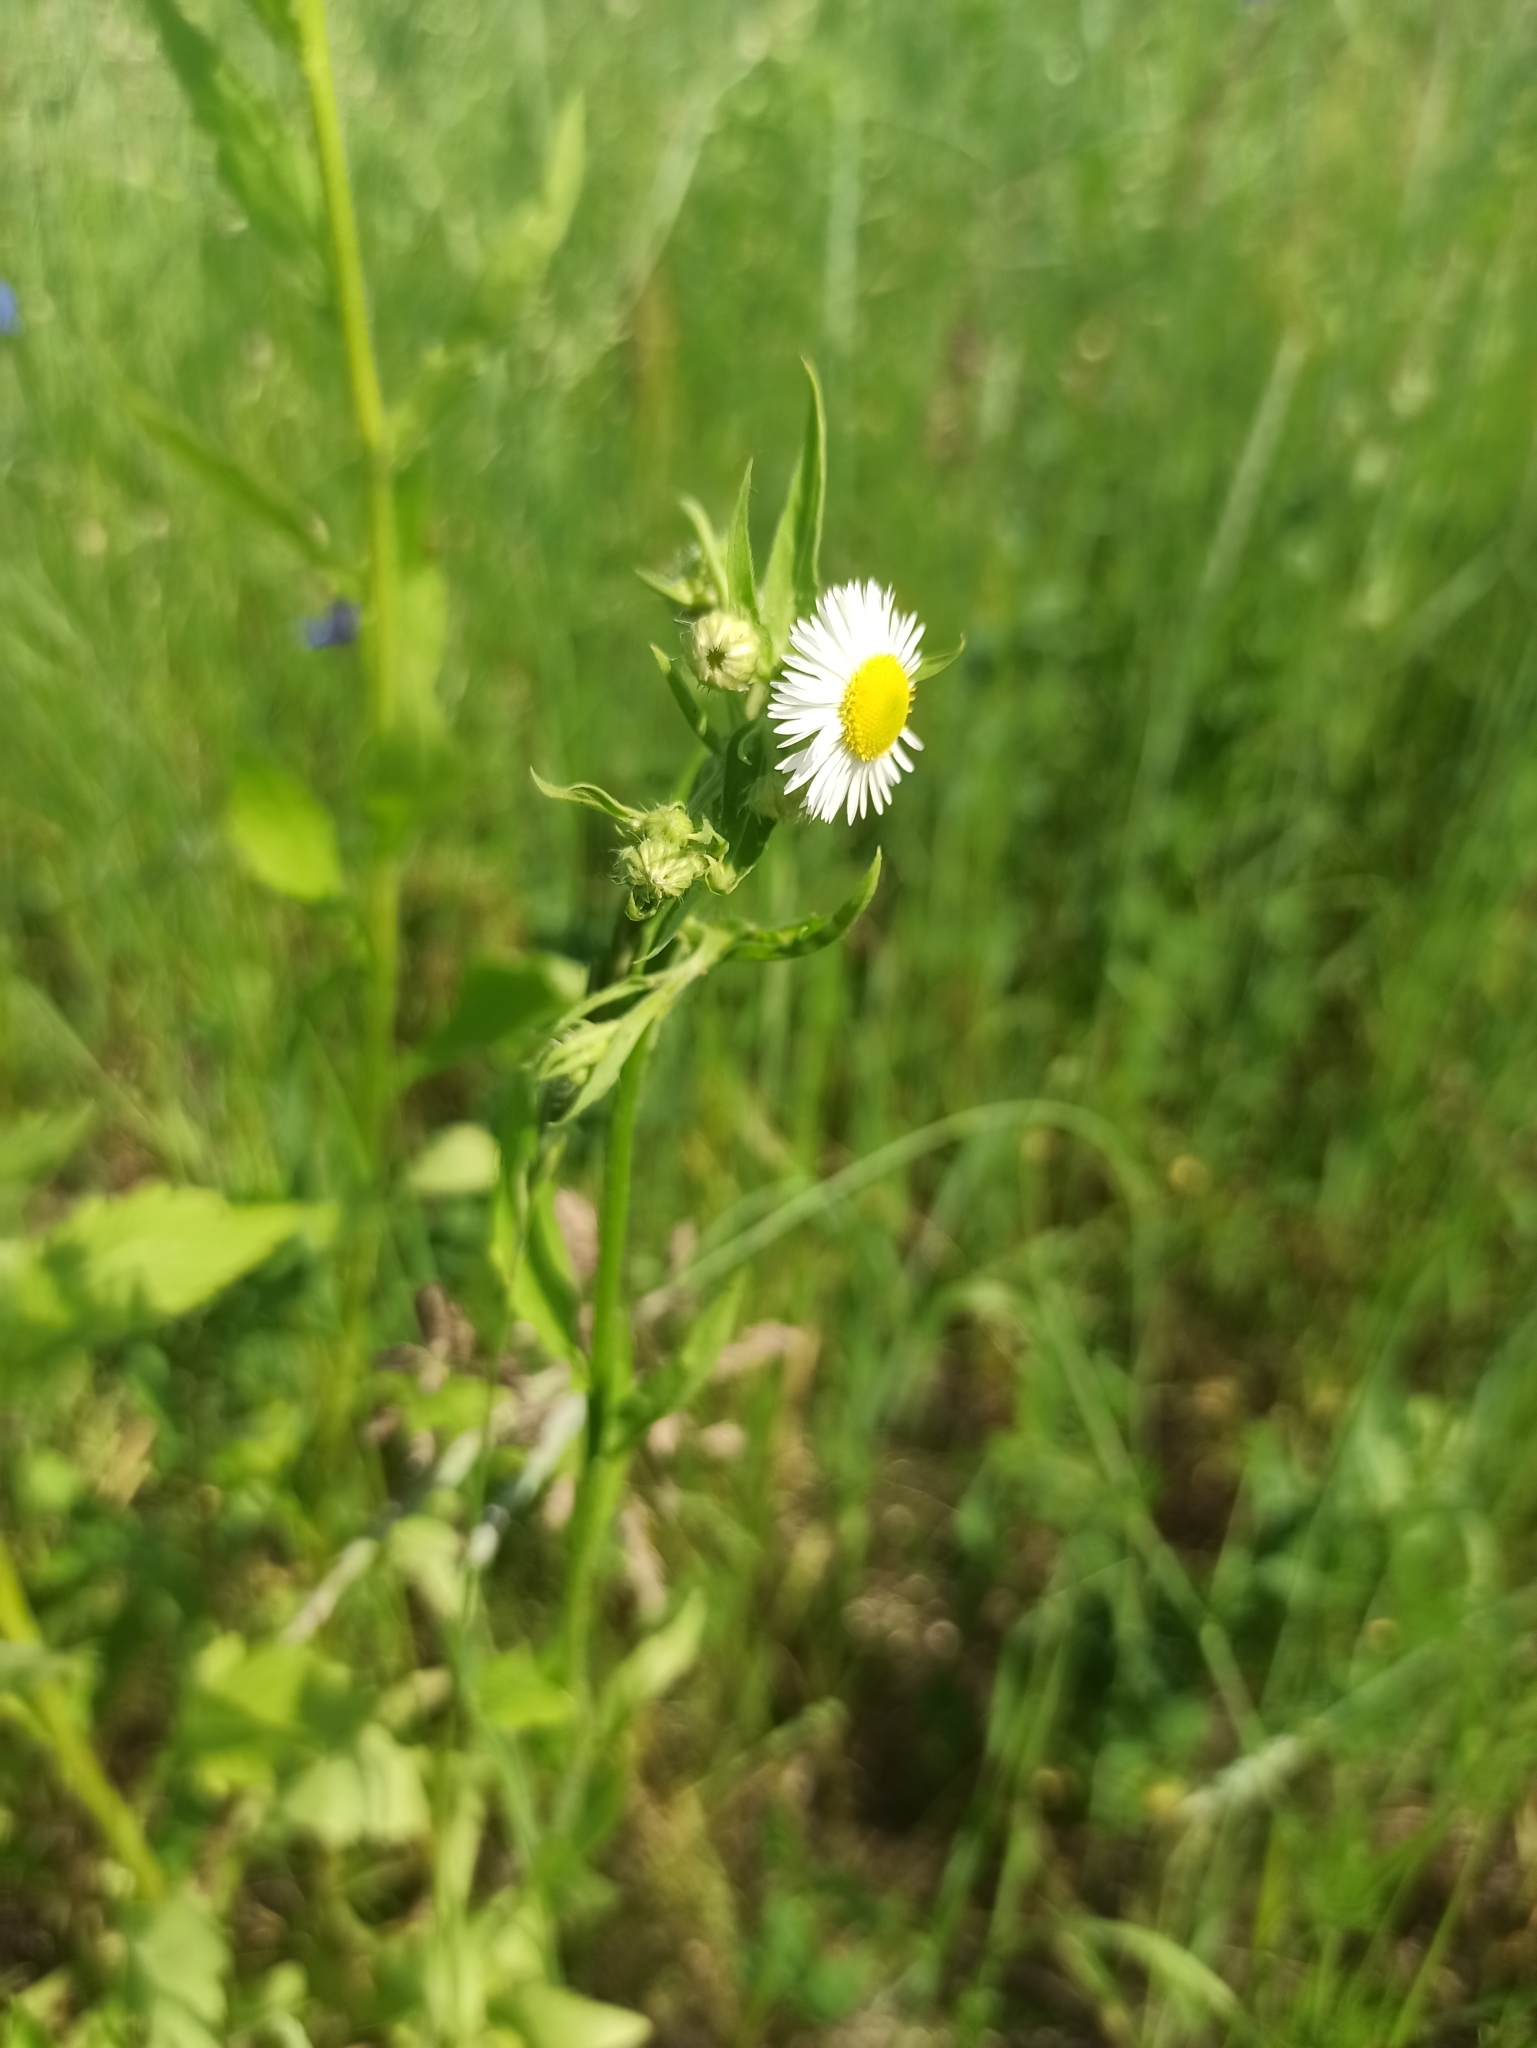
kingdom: Plantae
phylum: Tracheophyta
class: Magnoliopsida
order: Asterales
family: Asteraceae
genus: Erigeron
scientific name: Erigeron annuus
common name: Tall fleabane
